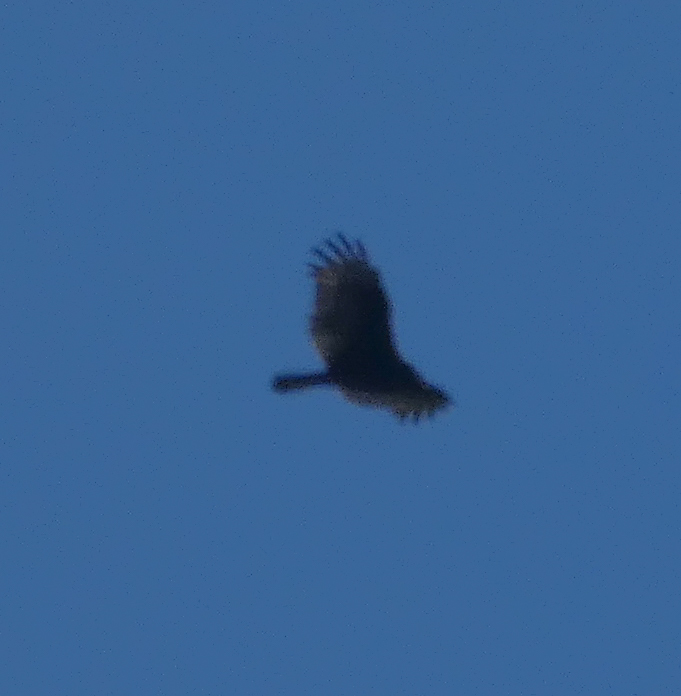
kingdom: Animalia
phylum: Chordata
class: Aves
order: Accipitriformes
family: Cathartidae
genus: Cathartes
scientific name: Cathartes aura
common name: Turkey vulture
